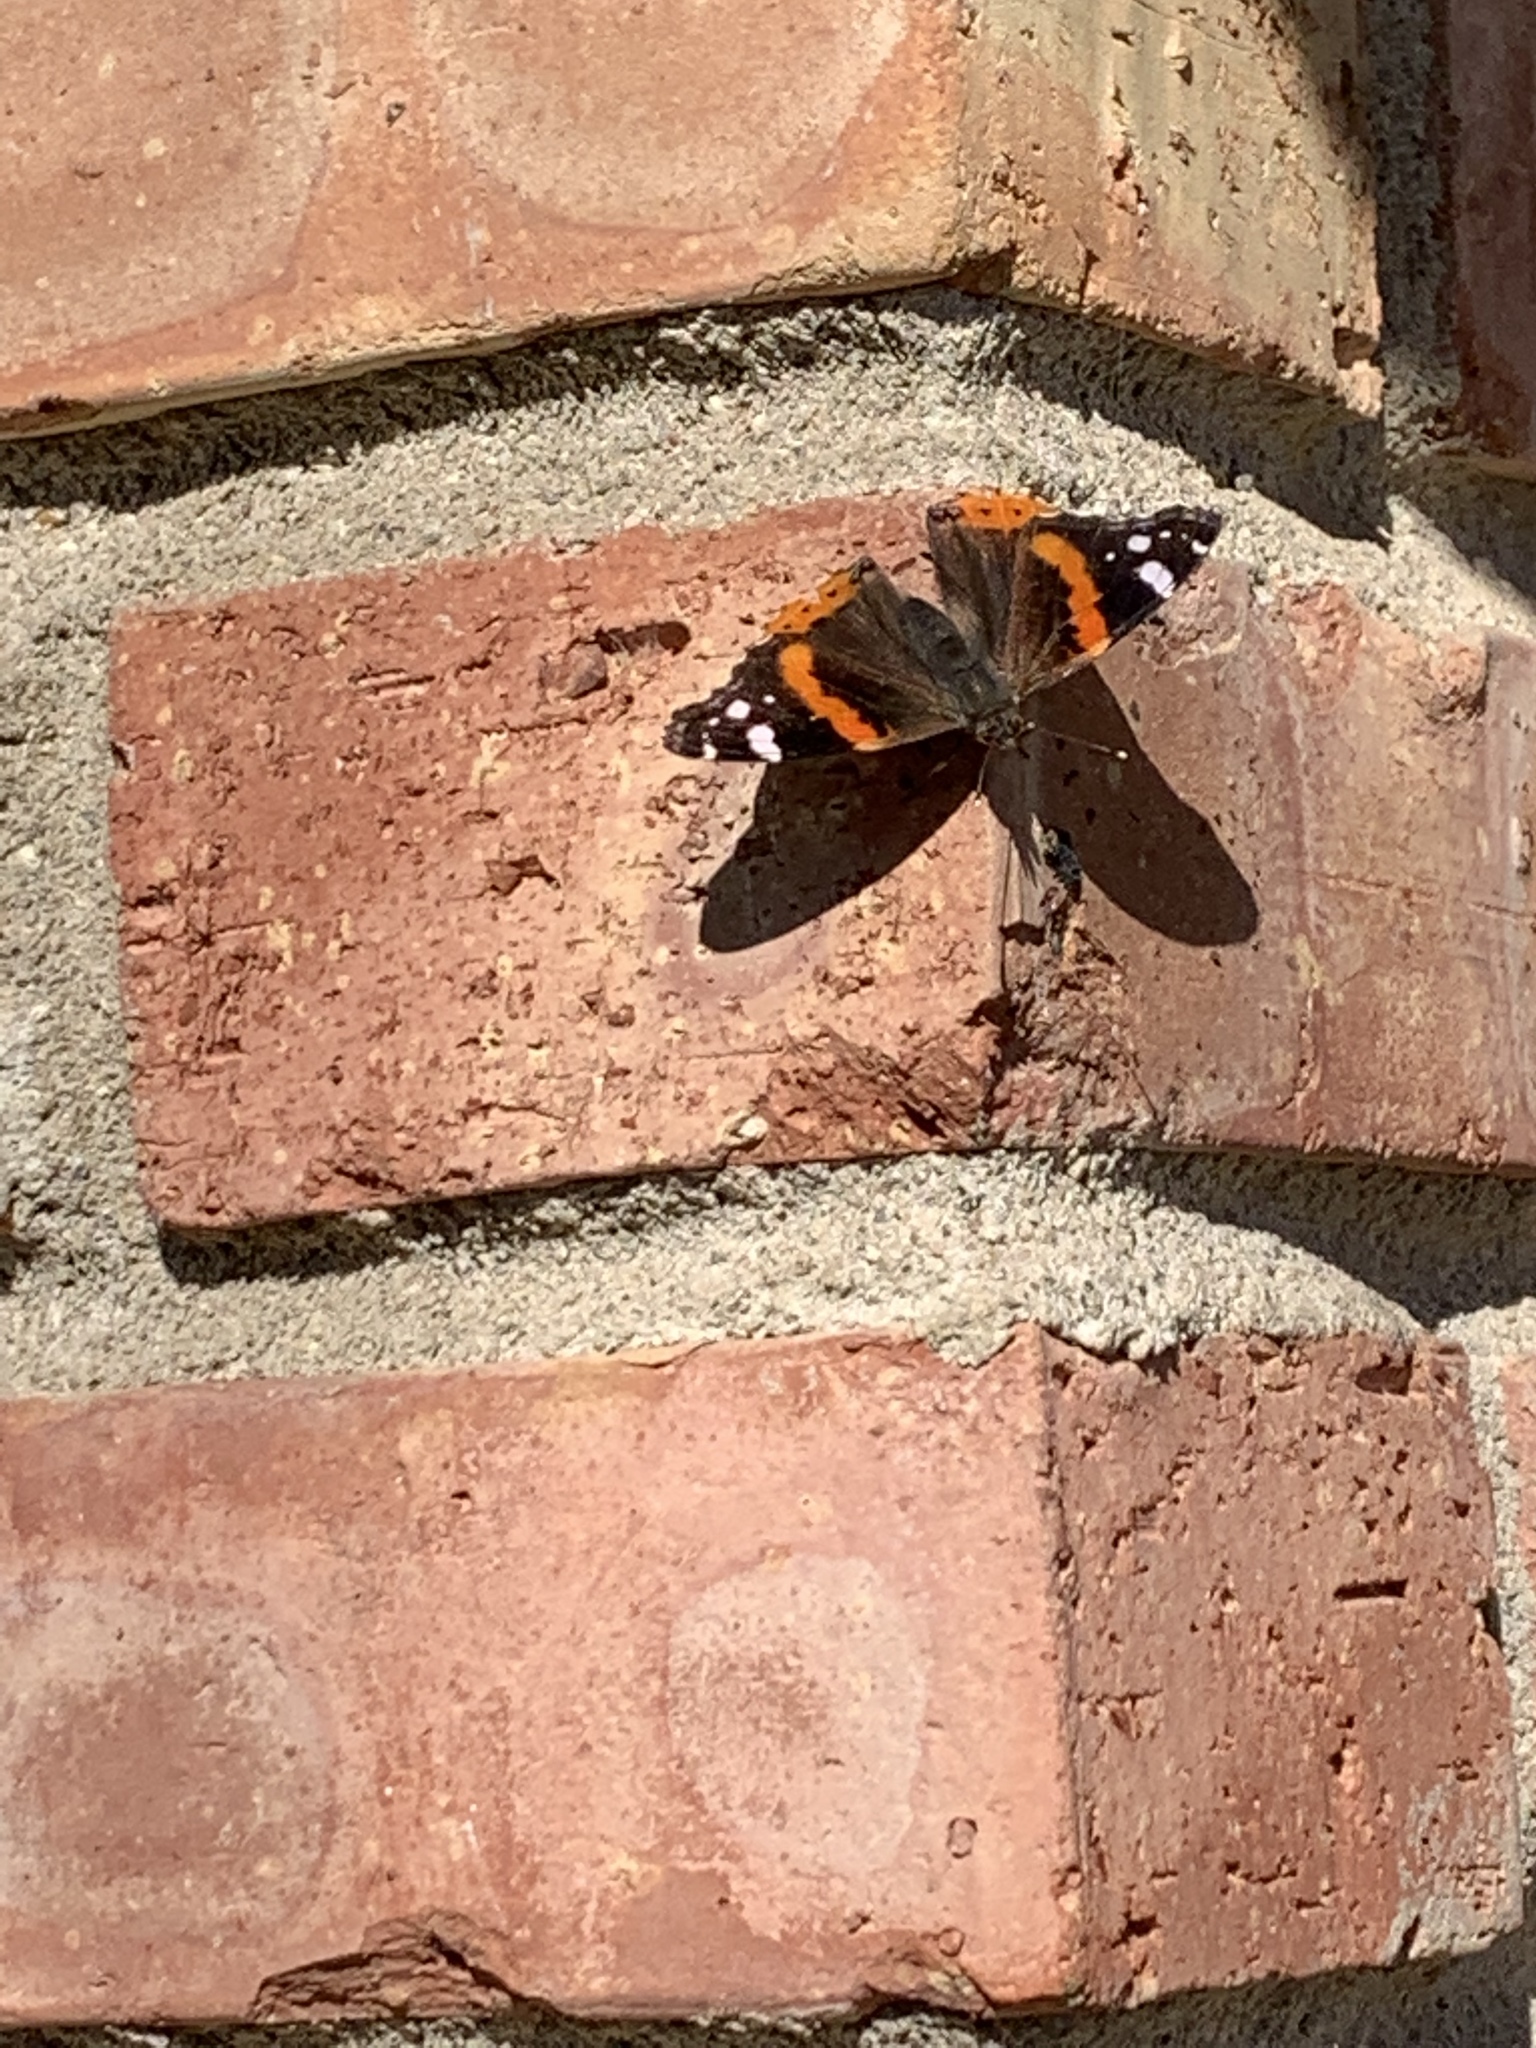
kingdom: Animalia
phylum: Arthropoda
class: Insecta
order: Lepidoptera
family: Nymphalidae
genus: Vanessa
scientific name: Vanessa atalanta
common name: Red admiral
